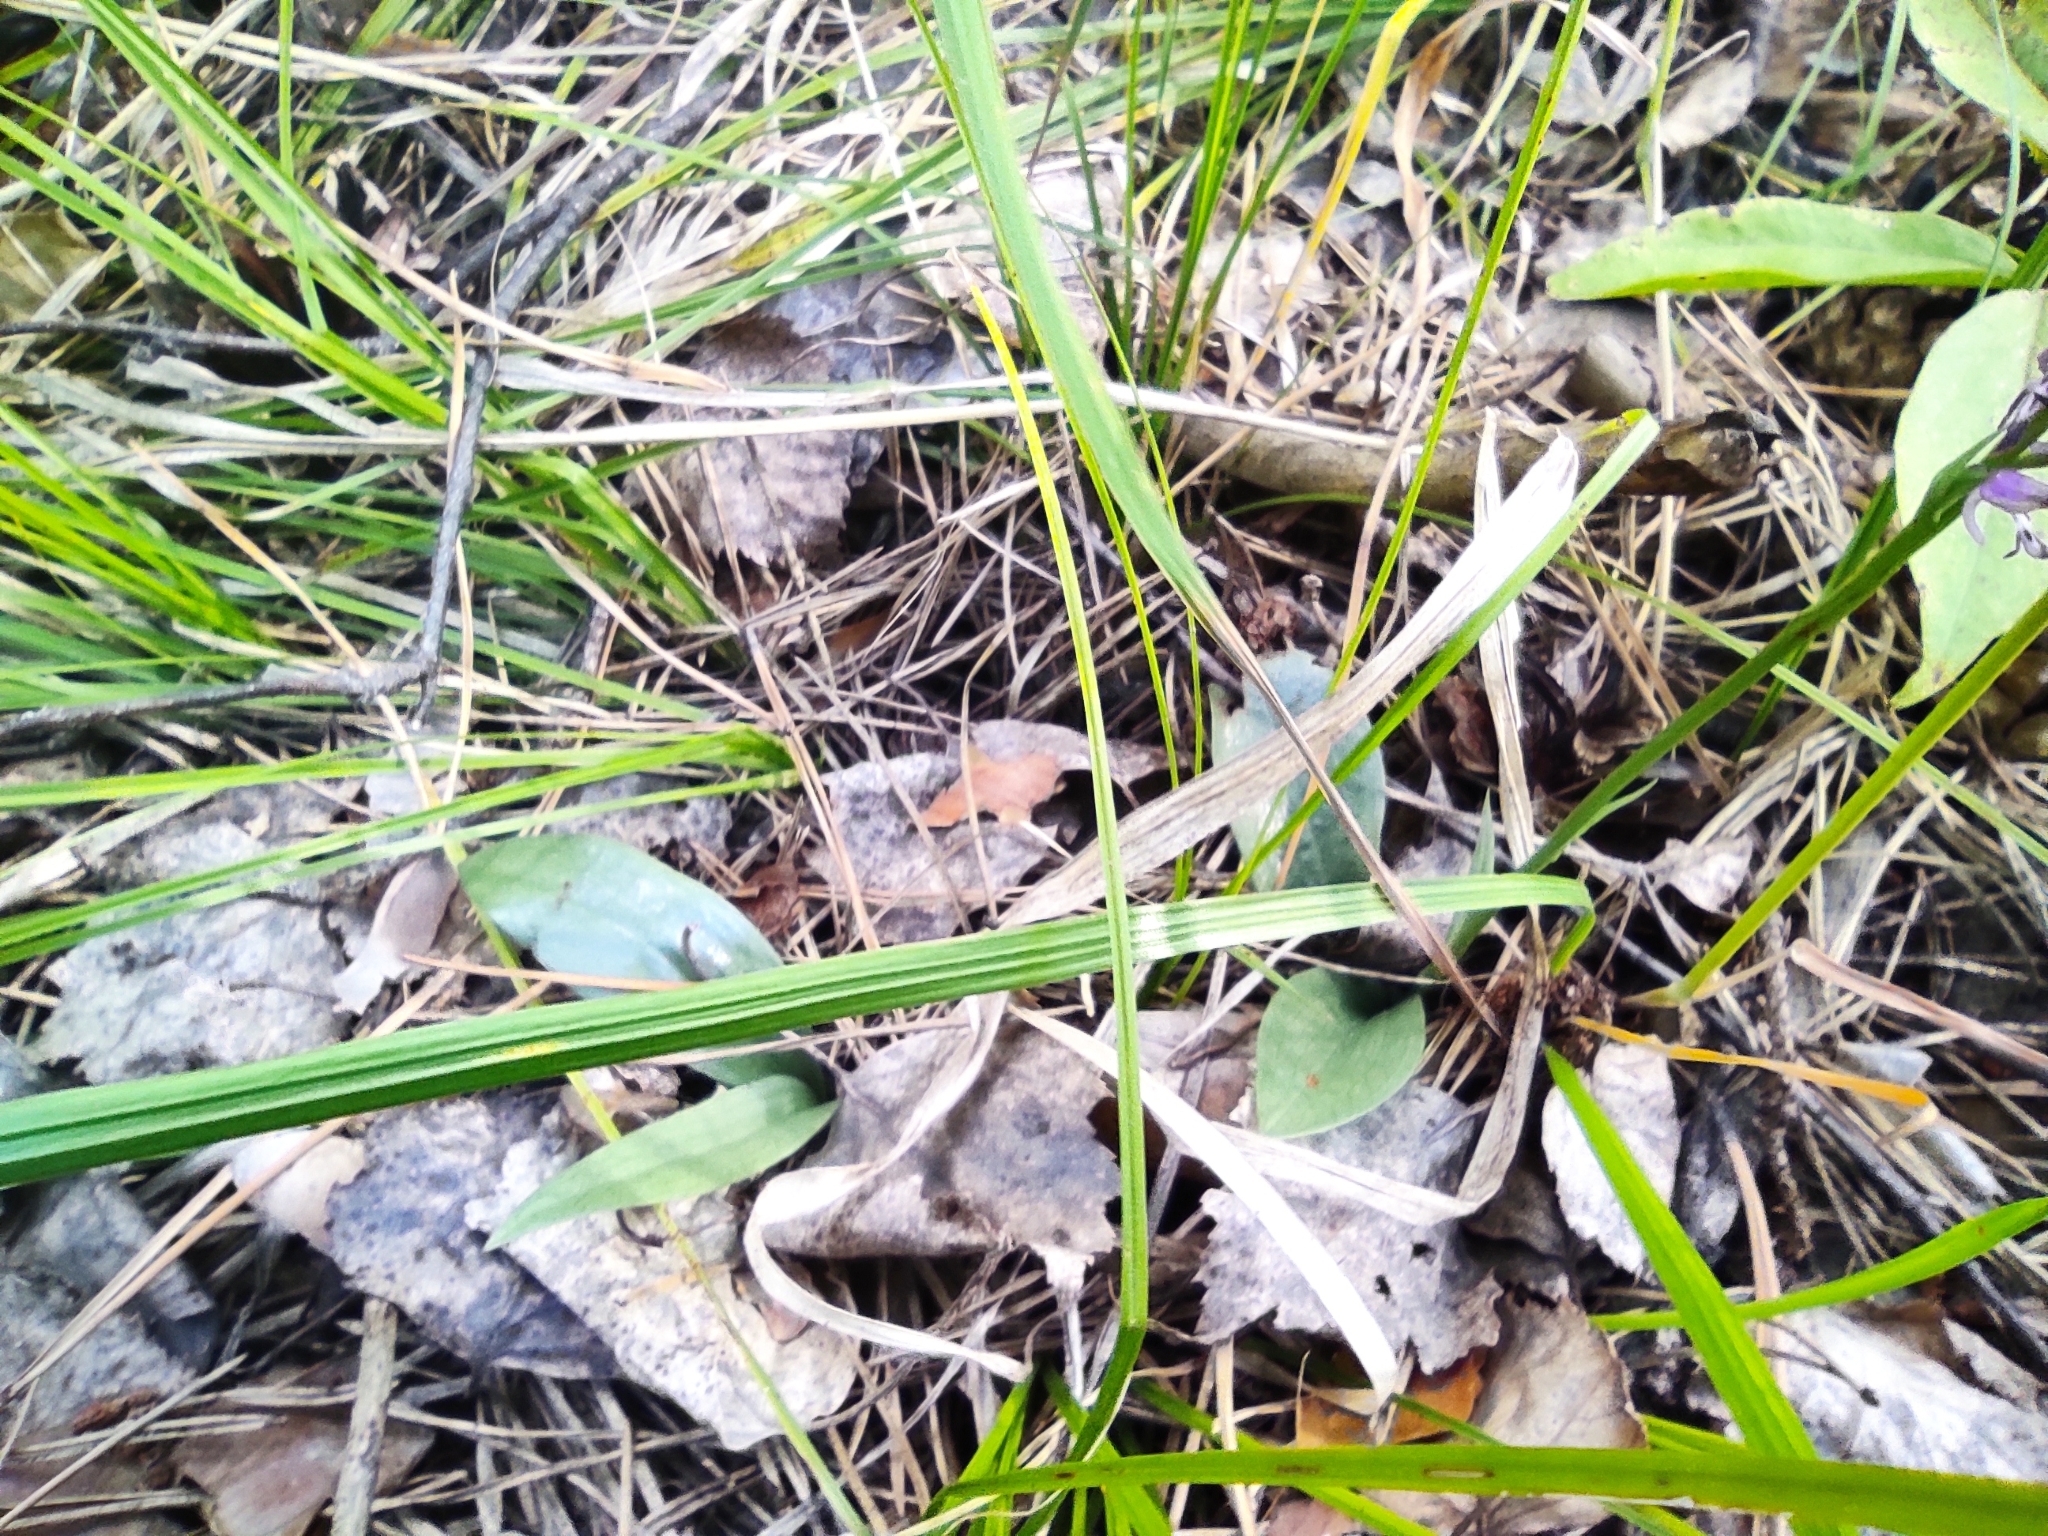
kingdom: Plantae
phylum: Tracheophyta
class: Liliopsida
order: Asparagales
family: Orchidaceae
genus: Hemipilia
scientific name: Hemipilia cucullata
